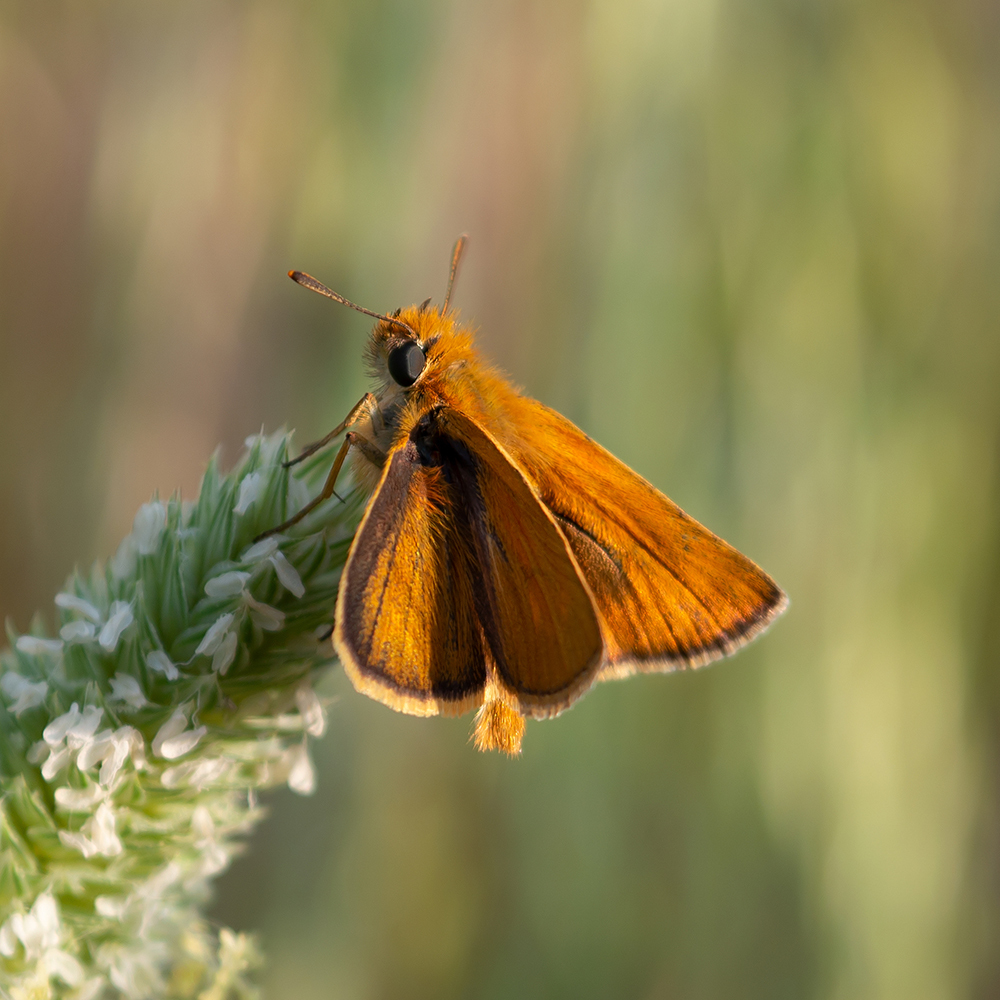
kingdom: Animalia
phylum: Arthropoda
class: Insecta
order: Lepidoptera
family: Hesperiidae
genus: Thymelicus
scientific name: Thymelicus acteon
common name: Lulworth skipper
